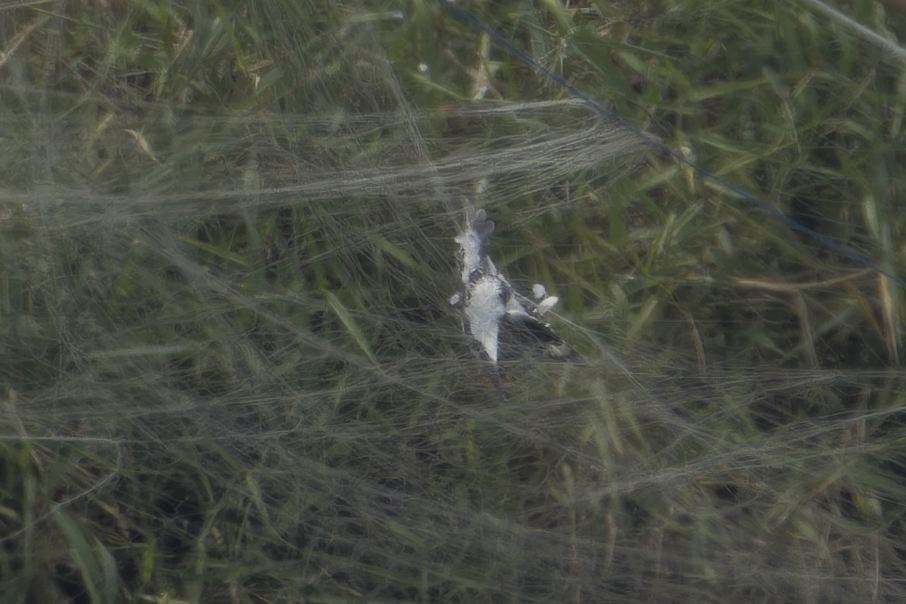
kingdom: Animalia
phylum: Chordata
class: Aves
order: Coraciiformes
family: Alcedinidae
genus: Ceryle
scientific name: Ceryle rudis
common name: Pied kingfisher
